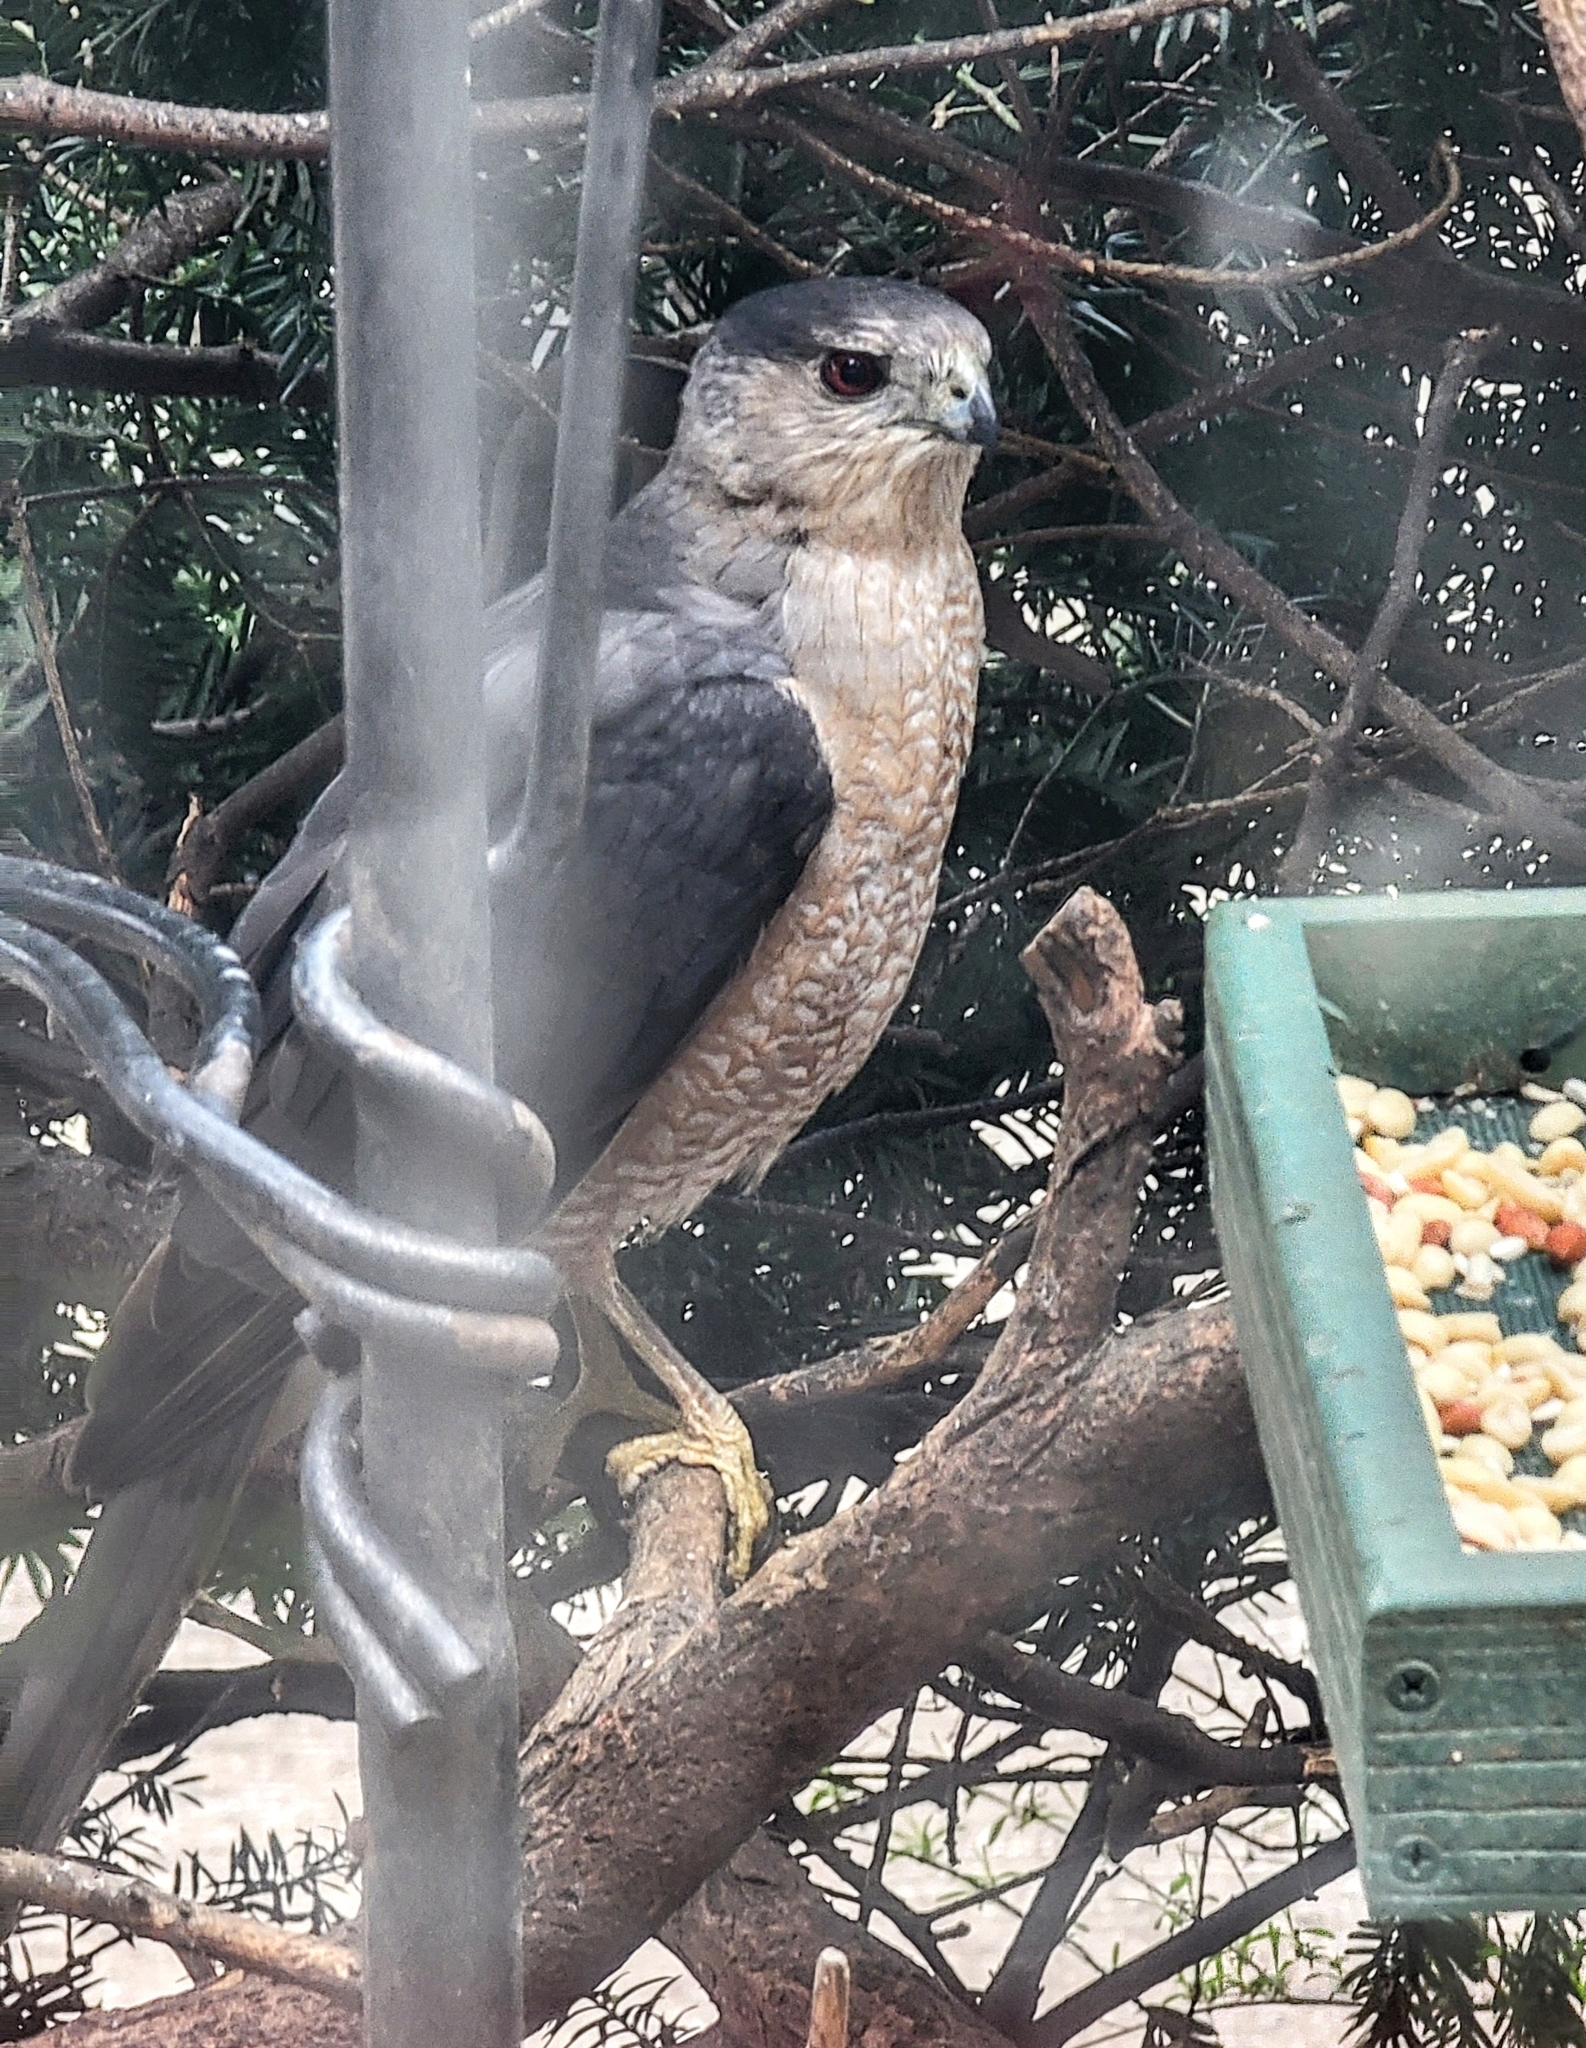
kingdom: Animalia
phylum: Chordata
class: Aves
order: Accipitriformes
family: Accipitridae
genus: Accipiter
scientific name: Accipiter cooperii
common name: Cooper's hawk
